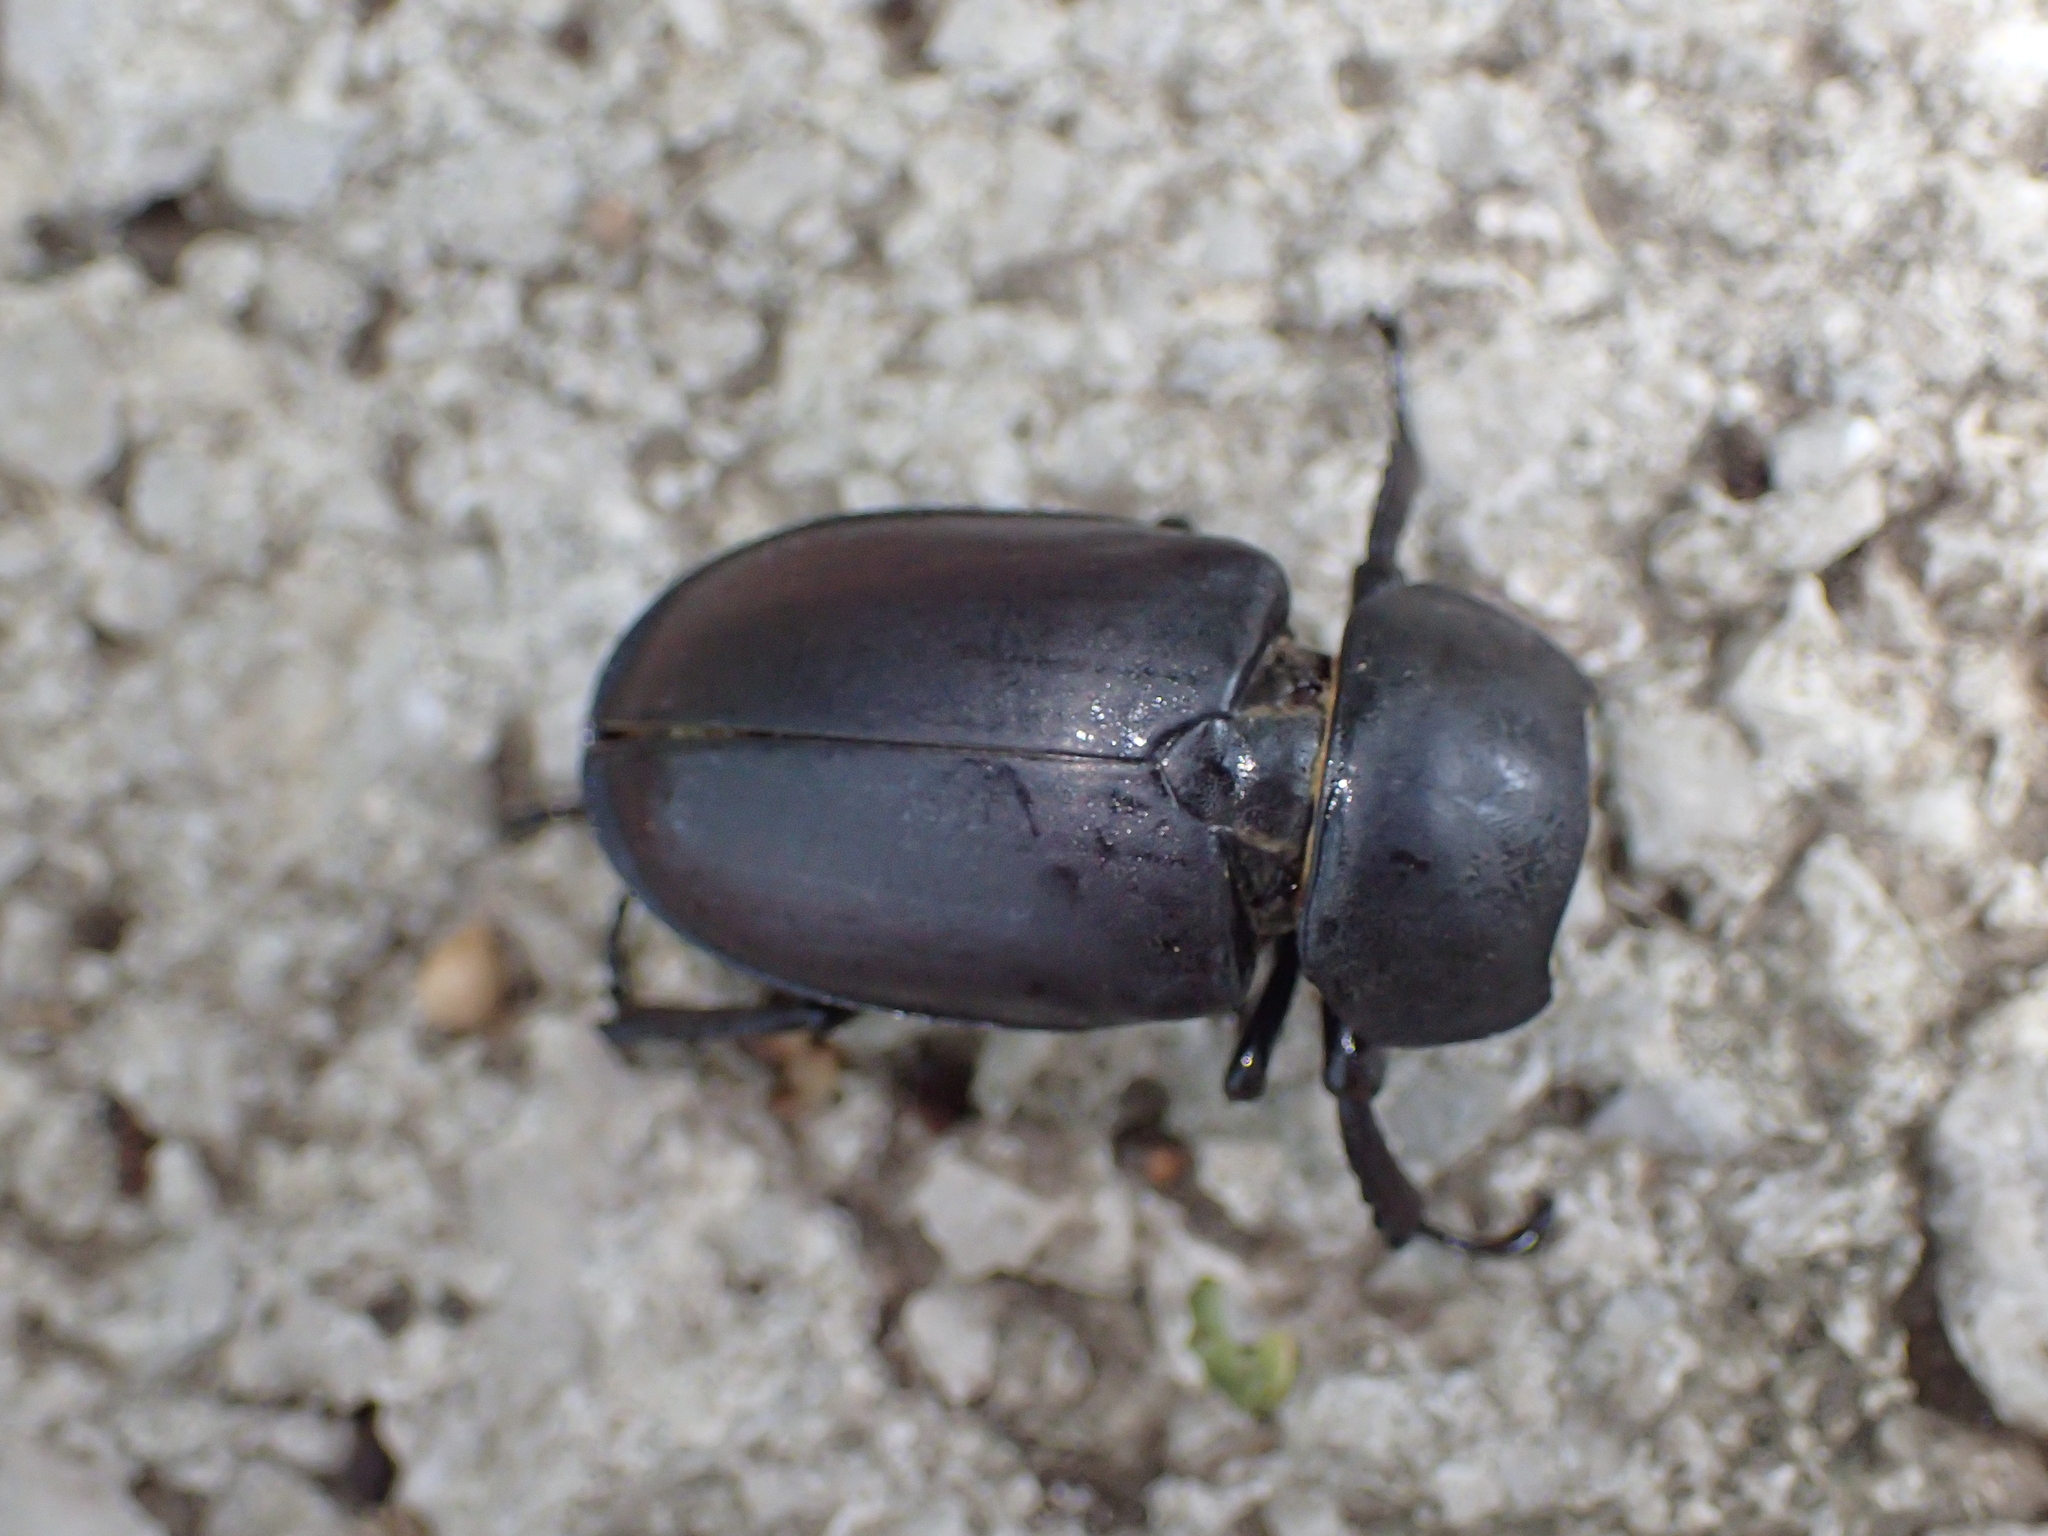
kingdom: Animalia
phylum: Arthropoda
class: Insecta
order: Coleoptera
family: Lucanidae
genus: Lucanus
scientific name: Lucanus cervus
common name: Stag beetle
